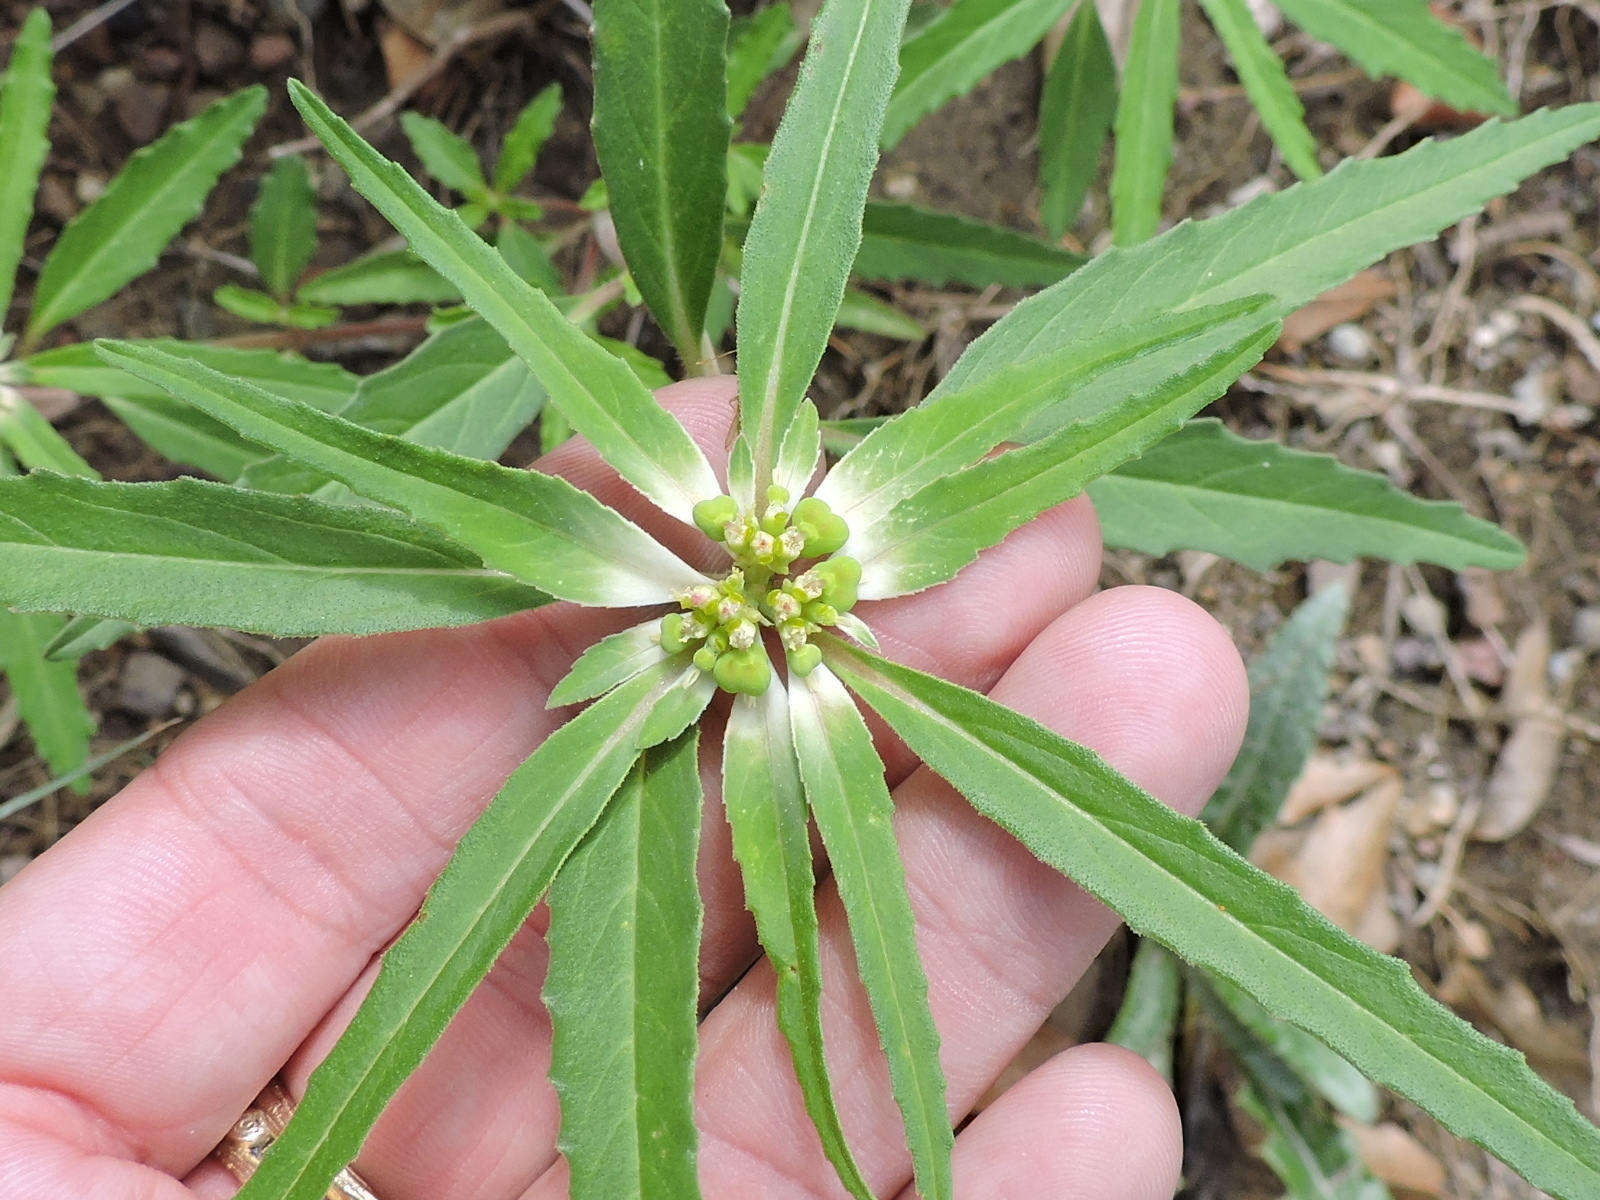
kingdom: Plantae
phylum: Tracheophyta
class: Magnoliopsida
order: Malpighiales
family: Euphorbiaceae
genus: Euphorbia
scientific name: Euphorbia dentata
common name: Dentate spurge
